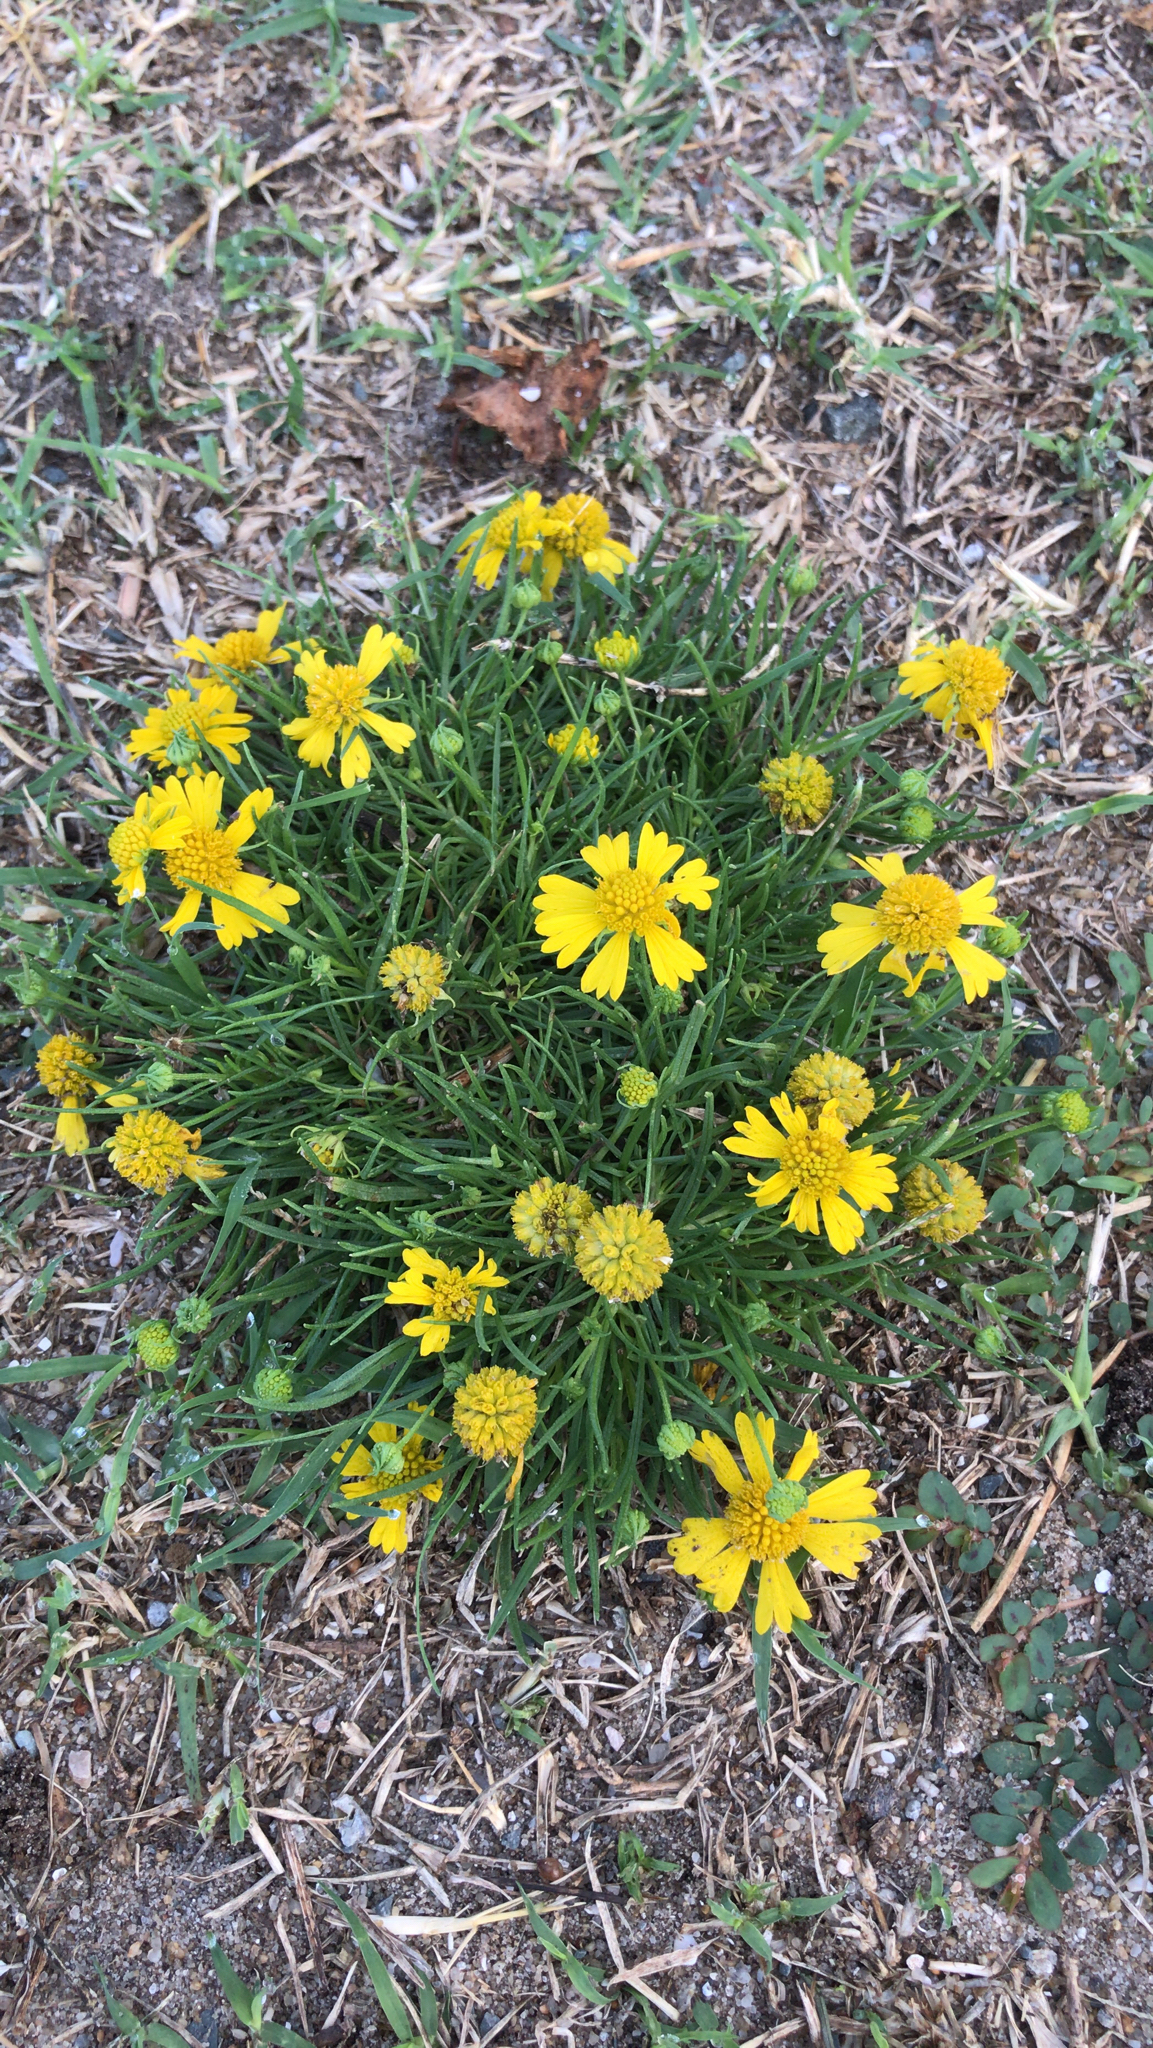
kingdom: Plantae
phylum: Tracheophyta
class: Magnoliopsida
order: Asterales
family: Asteraceae
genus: Helenium
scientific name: Helenium amarum
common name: Bitter sneezeweed
